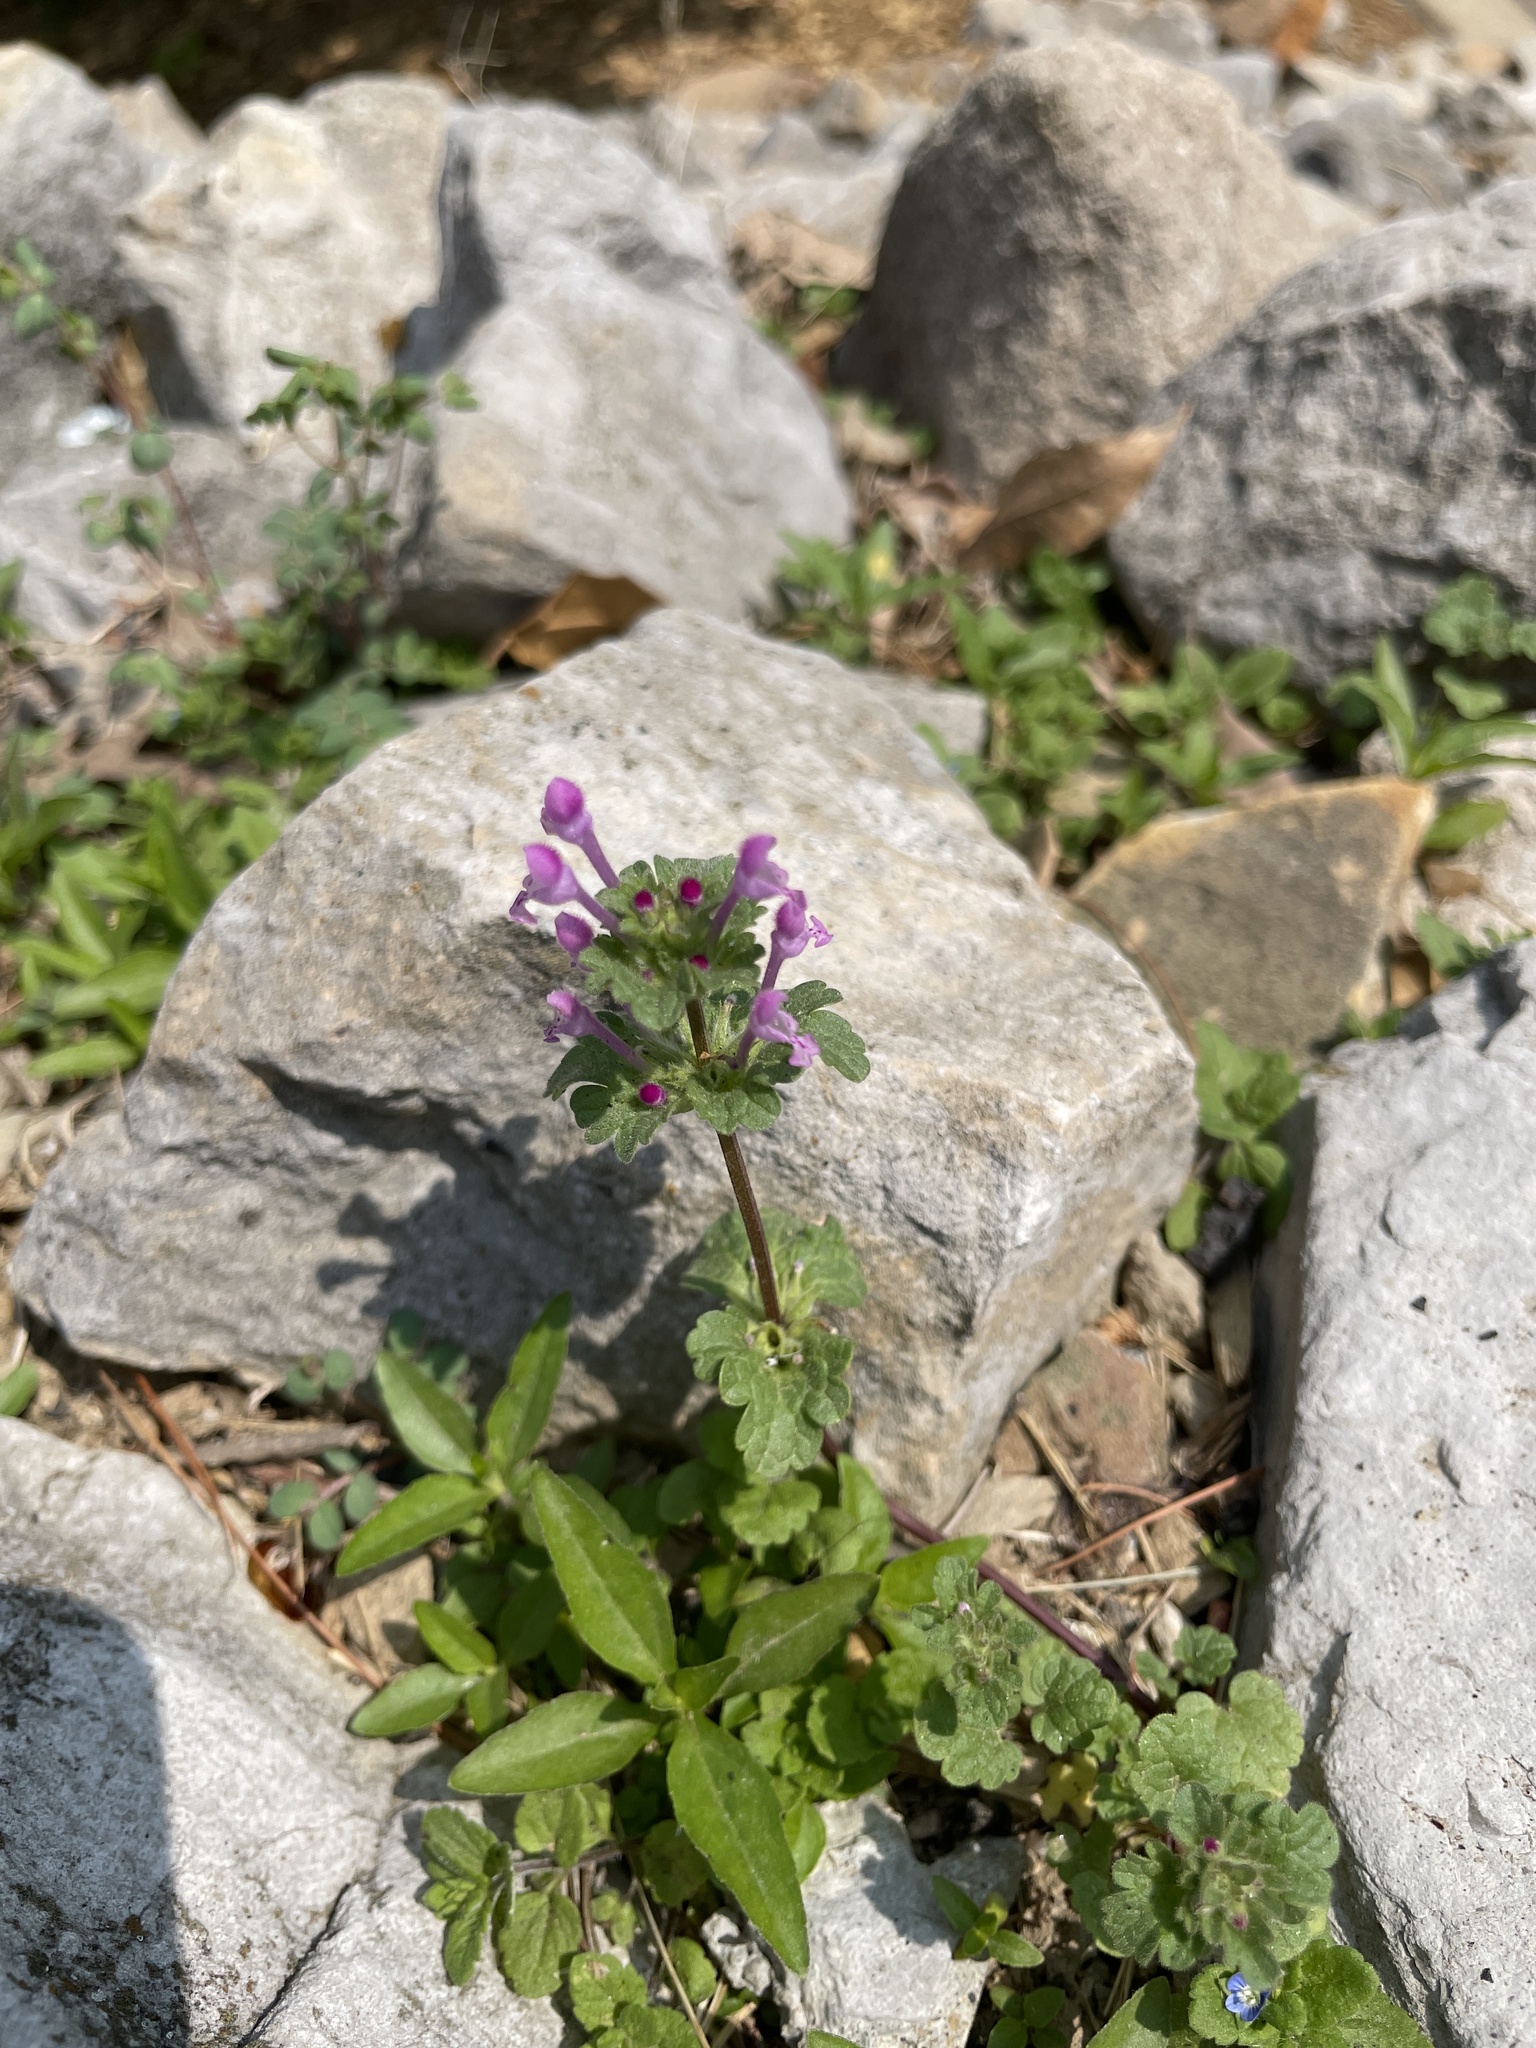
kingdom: Plantae
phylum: Tracheophyta
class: Magnoliopsida
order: Lamiales
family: Lamiaceae
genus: Lamium
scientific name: Lamium amplexicaule
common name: Henbit dead-nettle
